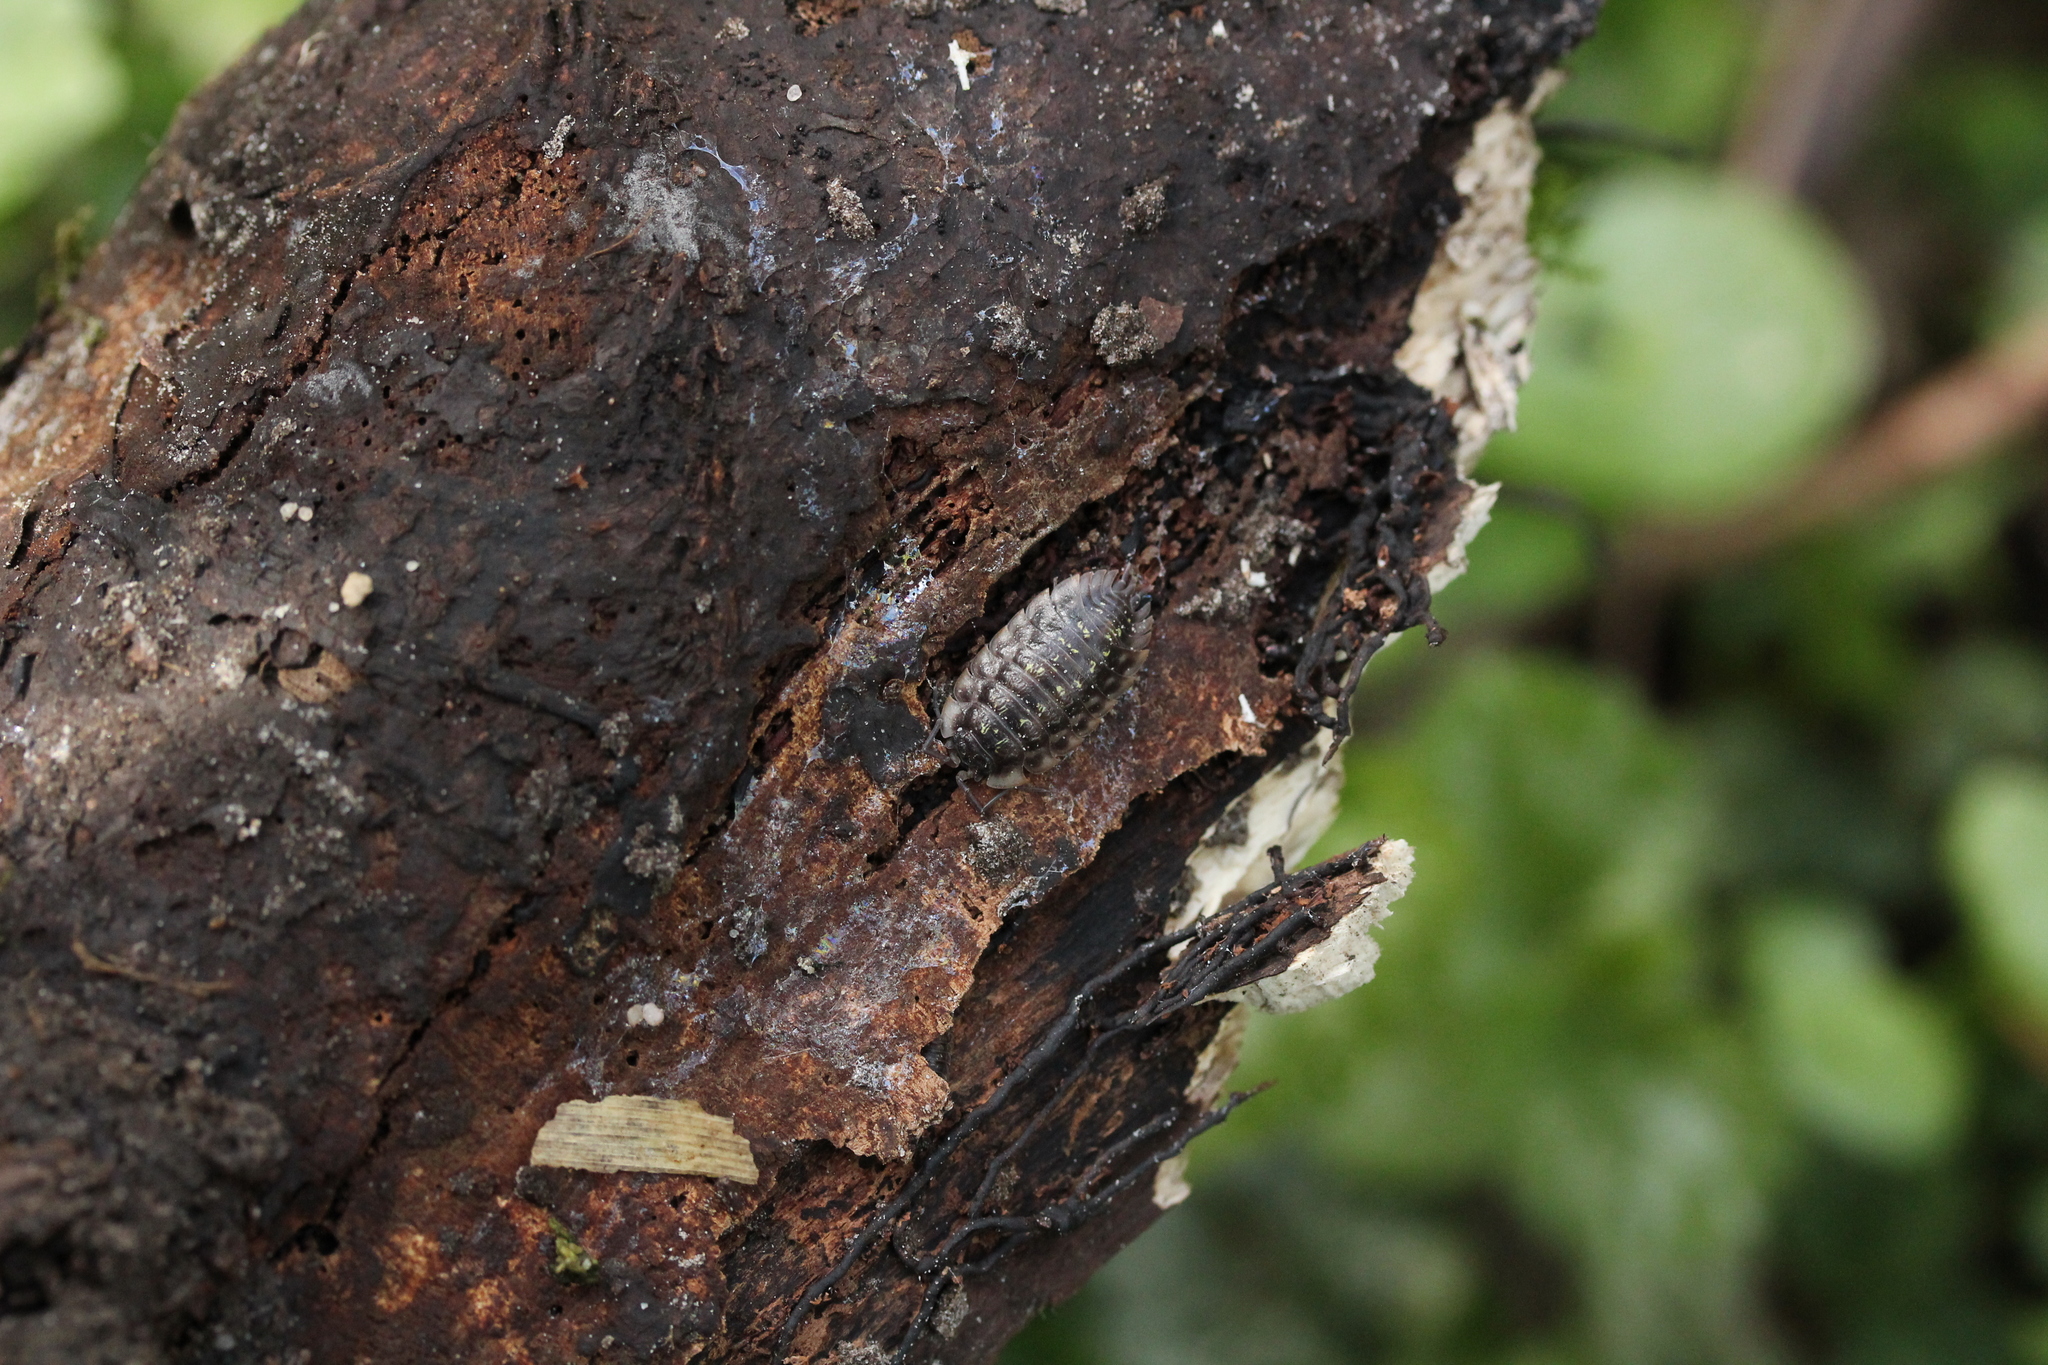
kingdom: Animalia
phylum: Arthropoda
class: Malacostraca
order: Isopoda
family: Oniscidae
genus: Oniscus
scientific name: Oniscus asellus
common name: Common shiny woodlouse
